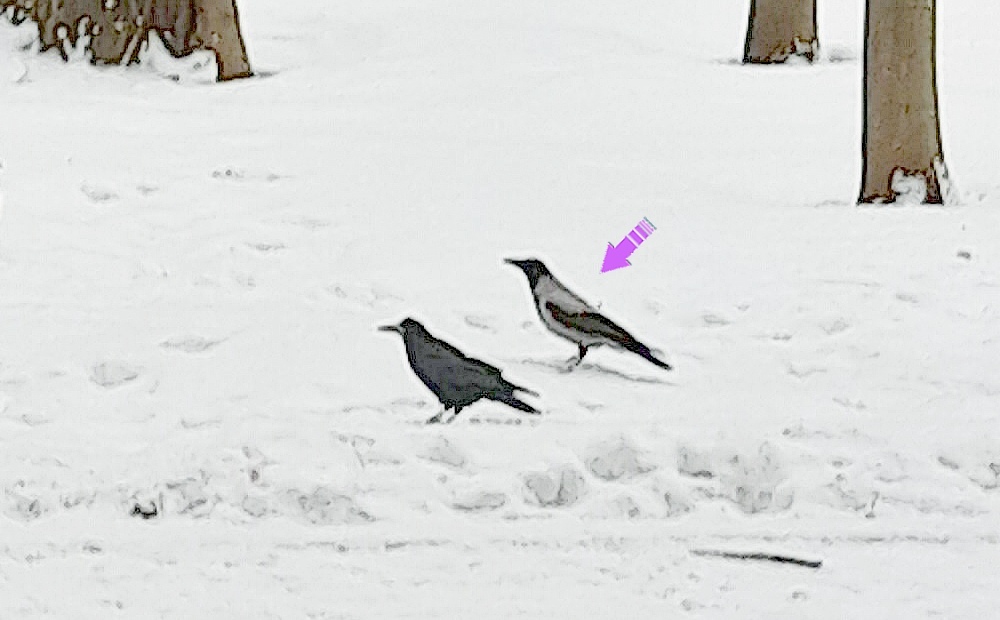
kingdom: Animalia
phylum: Chordata
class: Aves
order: Passeriformes
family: Corvidae
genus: Corvus
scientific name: Corvus cornix
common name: Hooded crow
